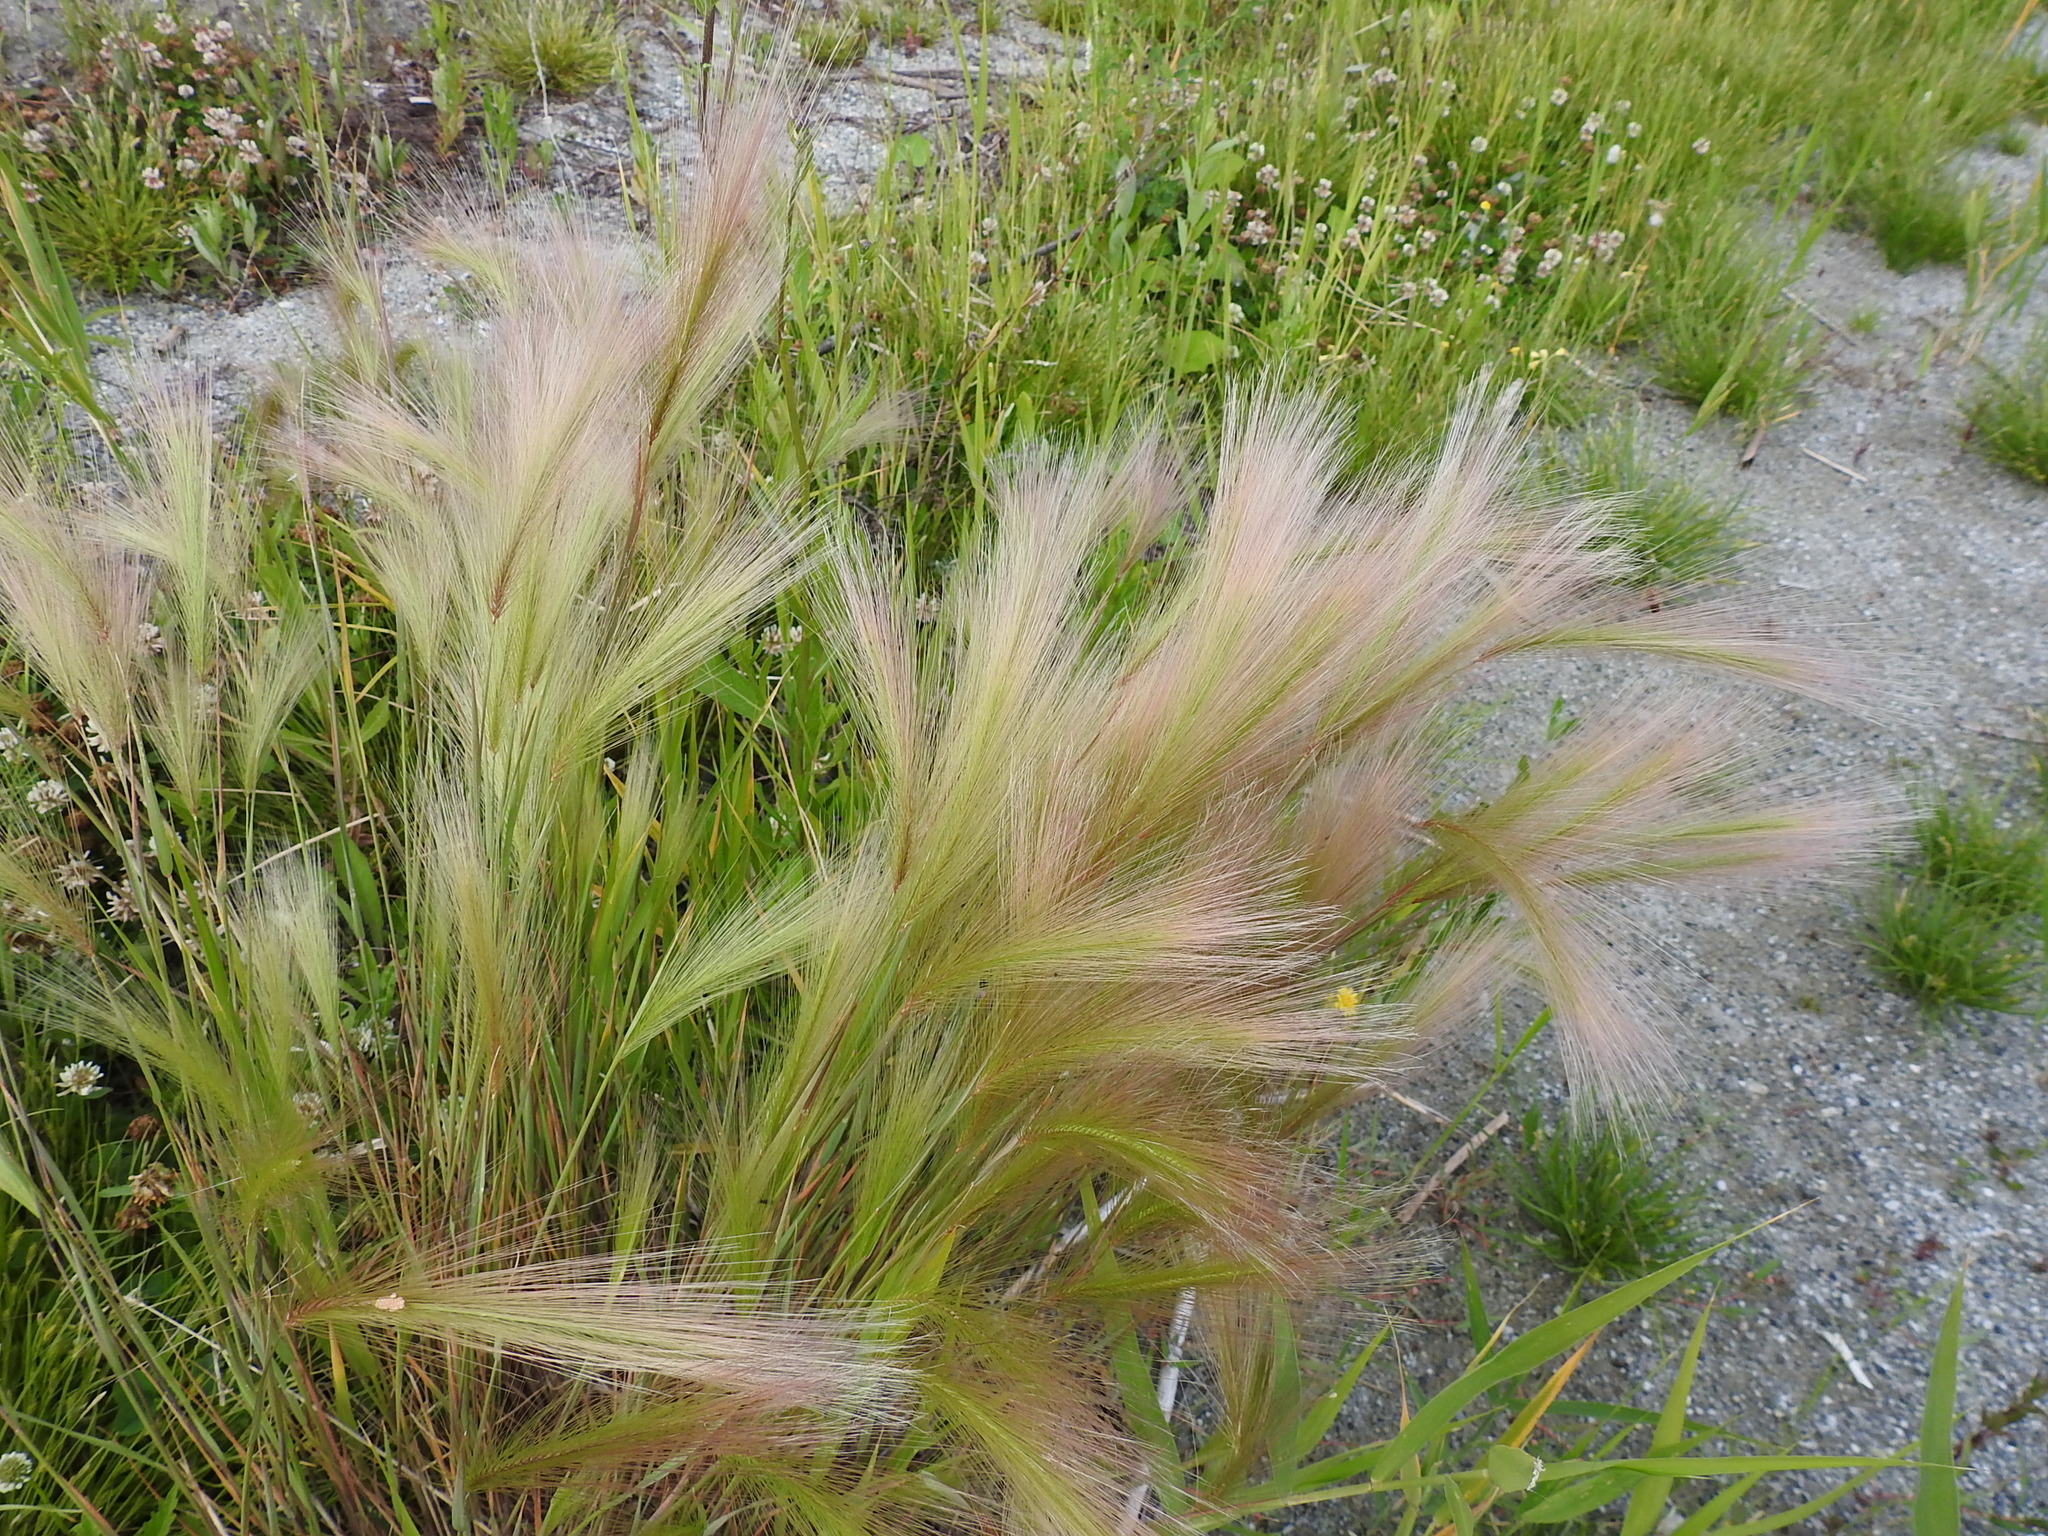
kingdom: Plantae
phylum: Tracheophyta
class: Liliopsida
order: Poales
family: Poaceae
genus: Hordeum
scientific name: Hordeum jubatum
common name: Foxtail barley
